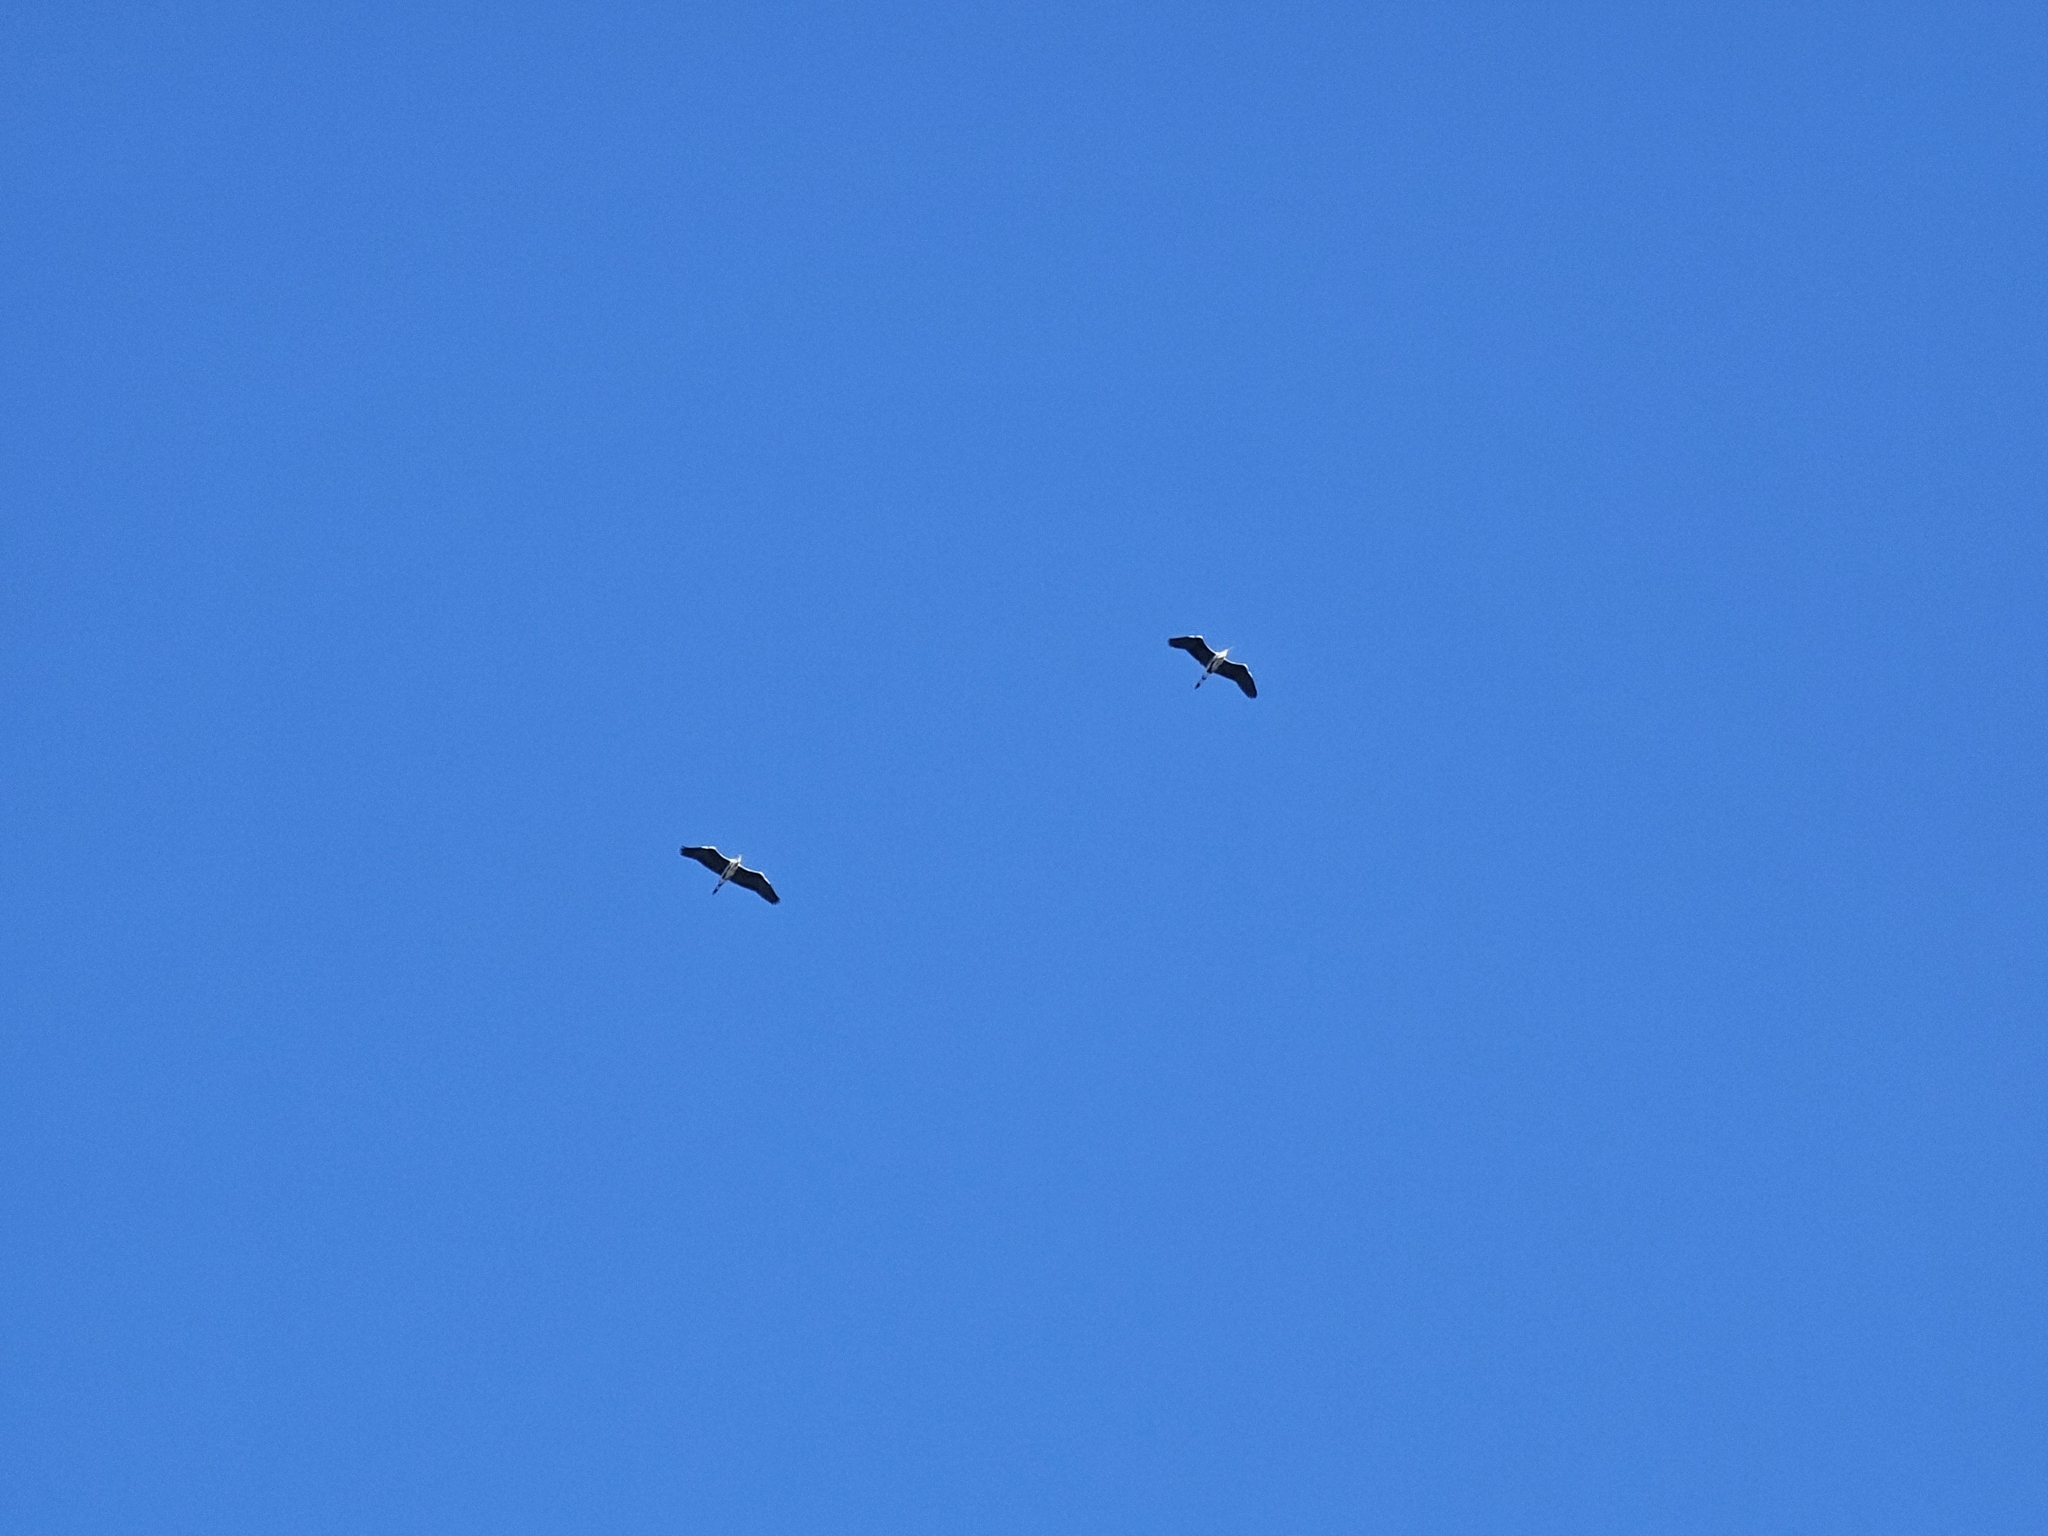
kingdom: Animalia
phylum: Chordata
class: Aves
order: Pelecaniformes
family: Ardeidae
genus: Ardea
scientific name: Ardea cinerea
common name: Grey heron
